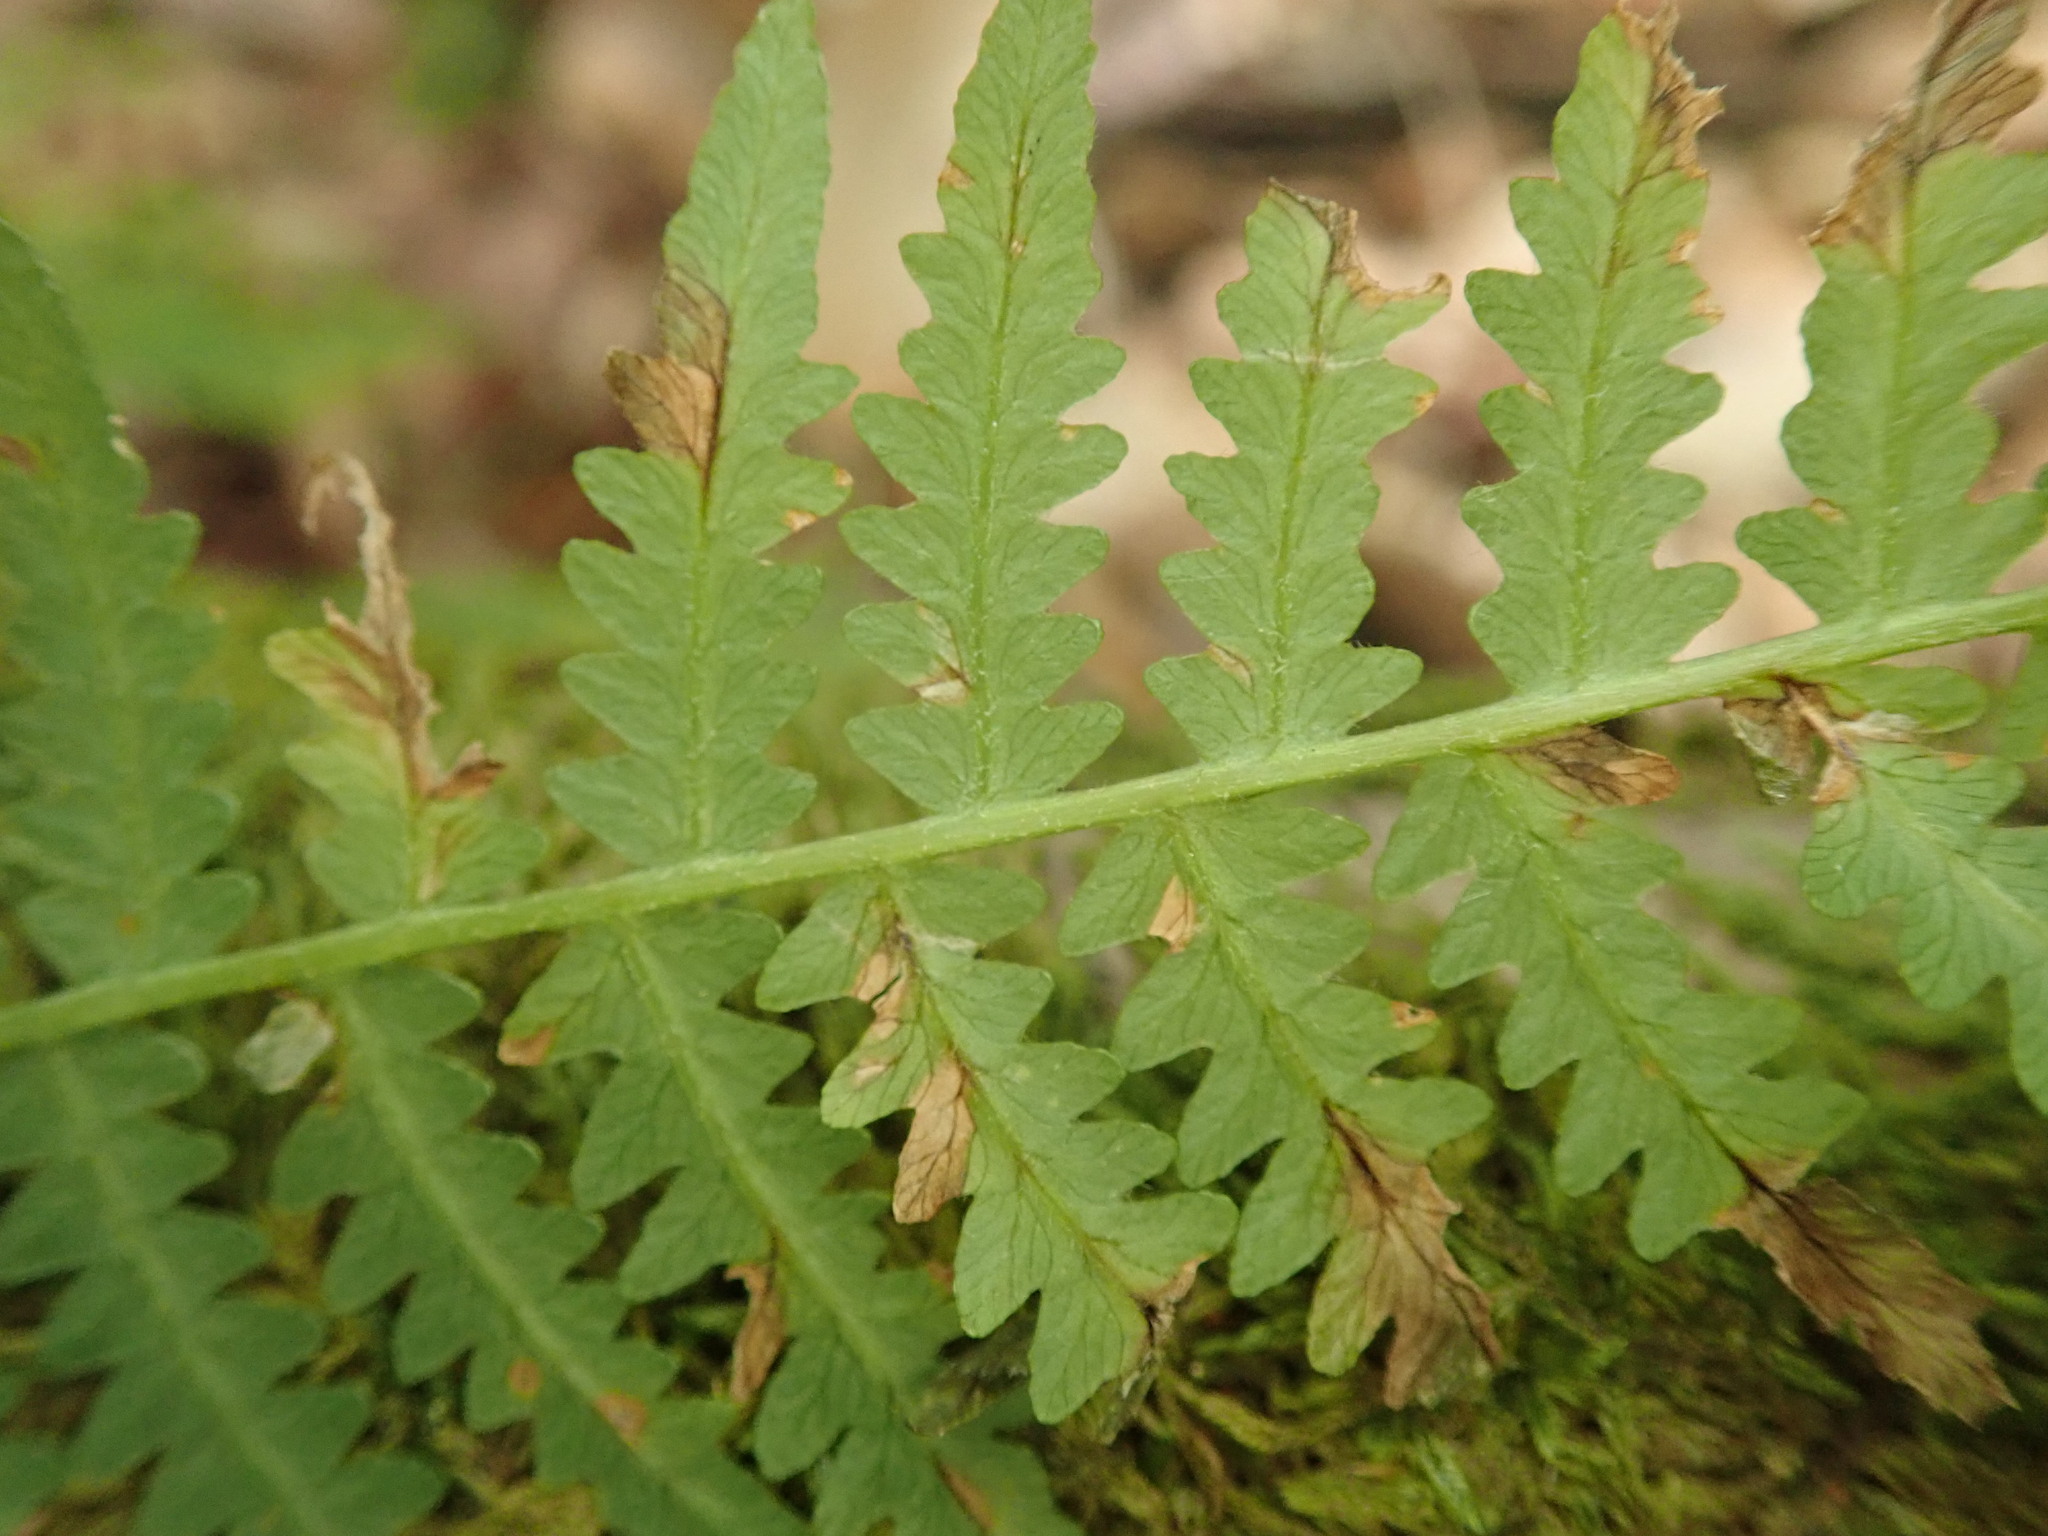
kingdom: Plantae
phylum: Tracheophyta
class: Polypodiopsida
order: Polypodiales
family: Dennstaedtiaceae
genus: Pteridium
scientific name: Pteridium aquilinum
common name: Bracken
